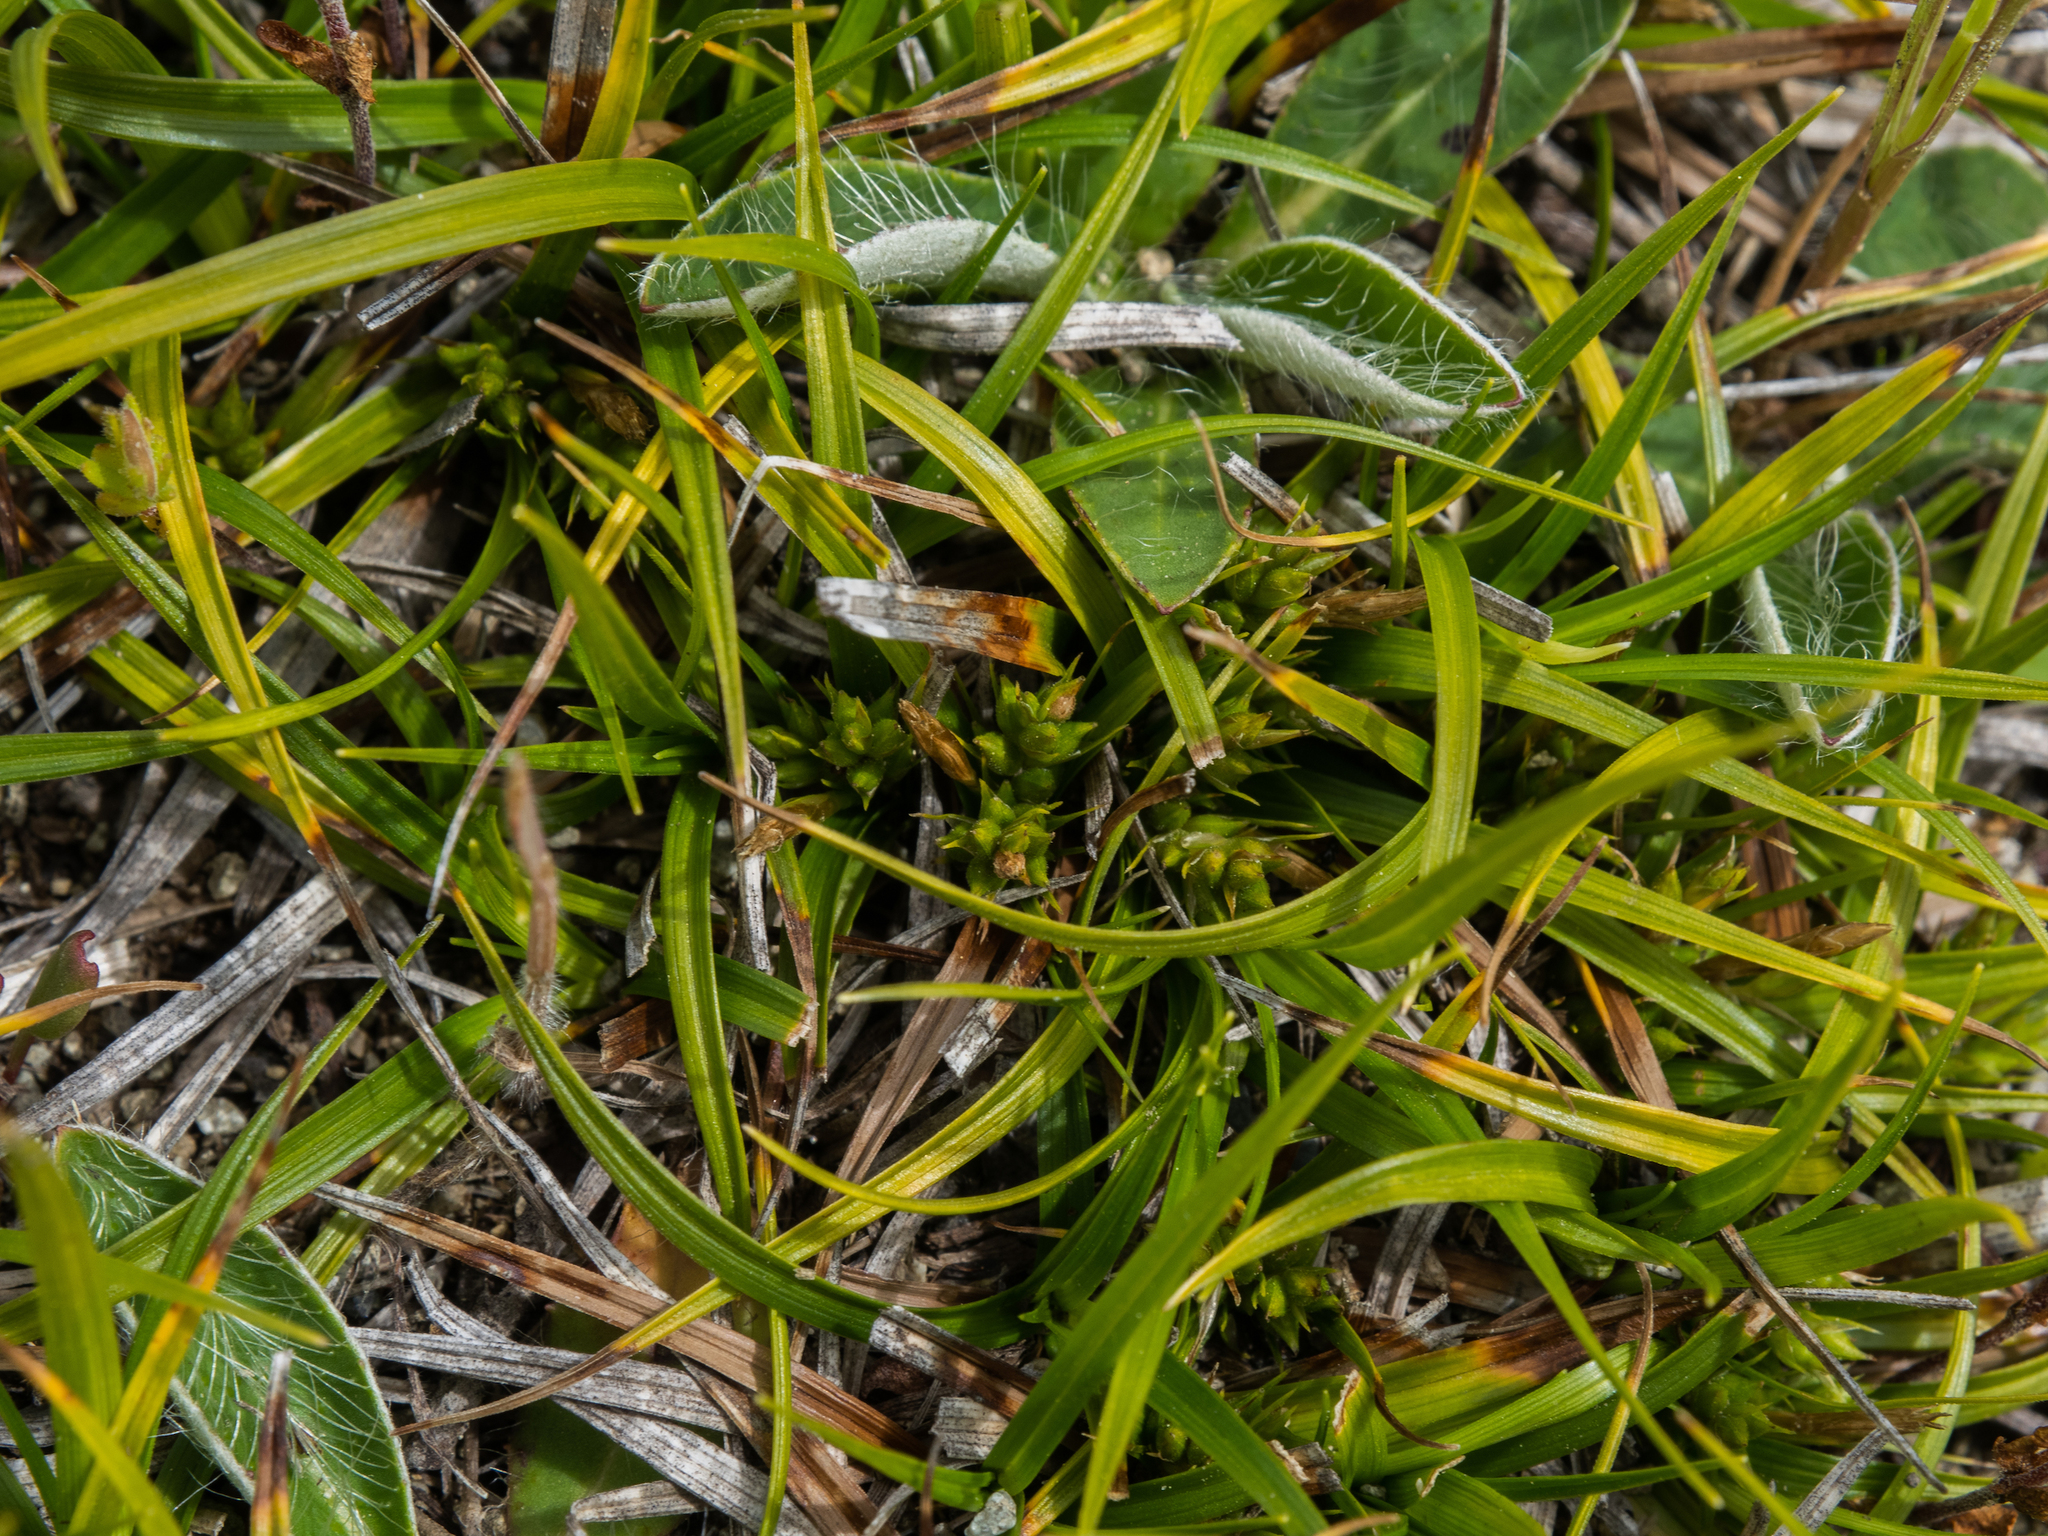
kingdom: Plantae
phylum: Tracheophyta
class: Liliopsida
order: Poales
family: Cyperaceae
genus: Carex
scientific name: Carex breviculmis
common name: Asian shortstem sedge
